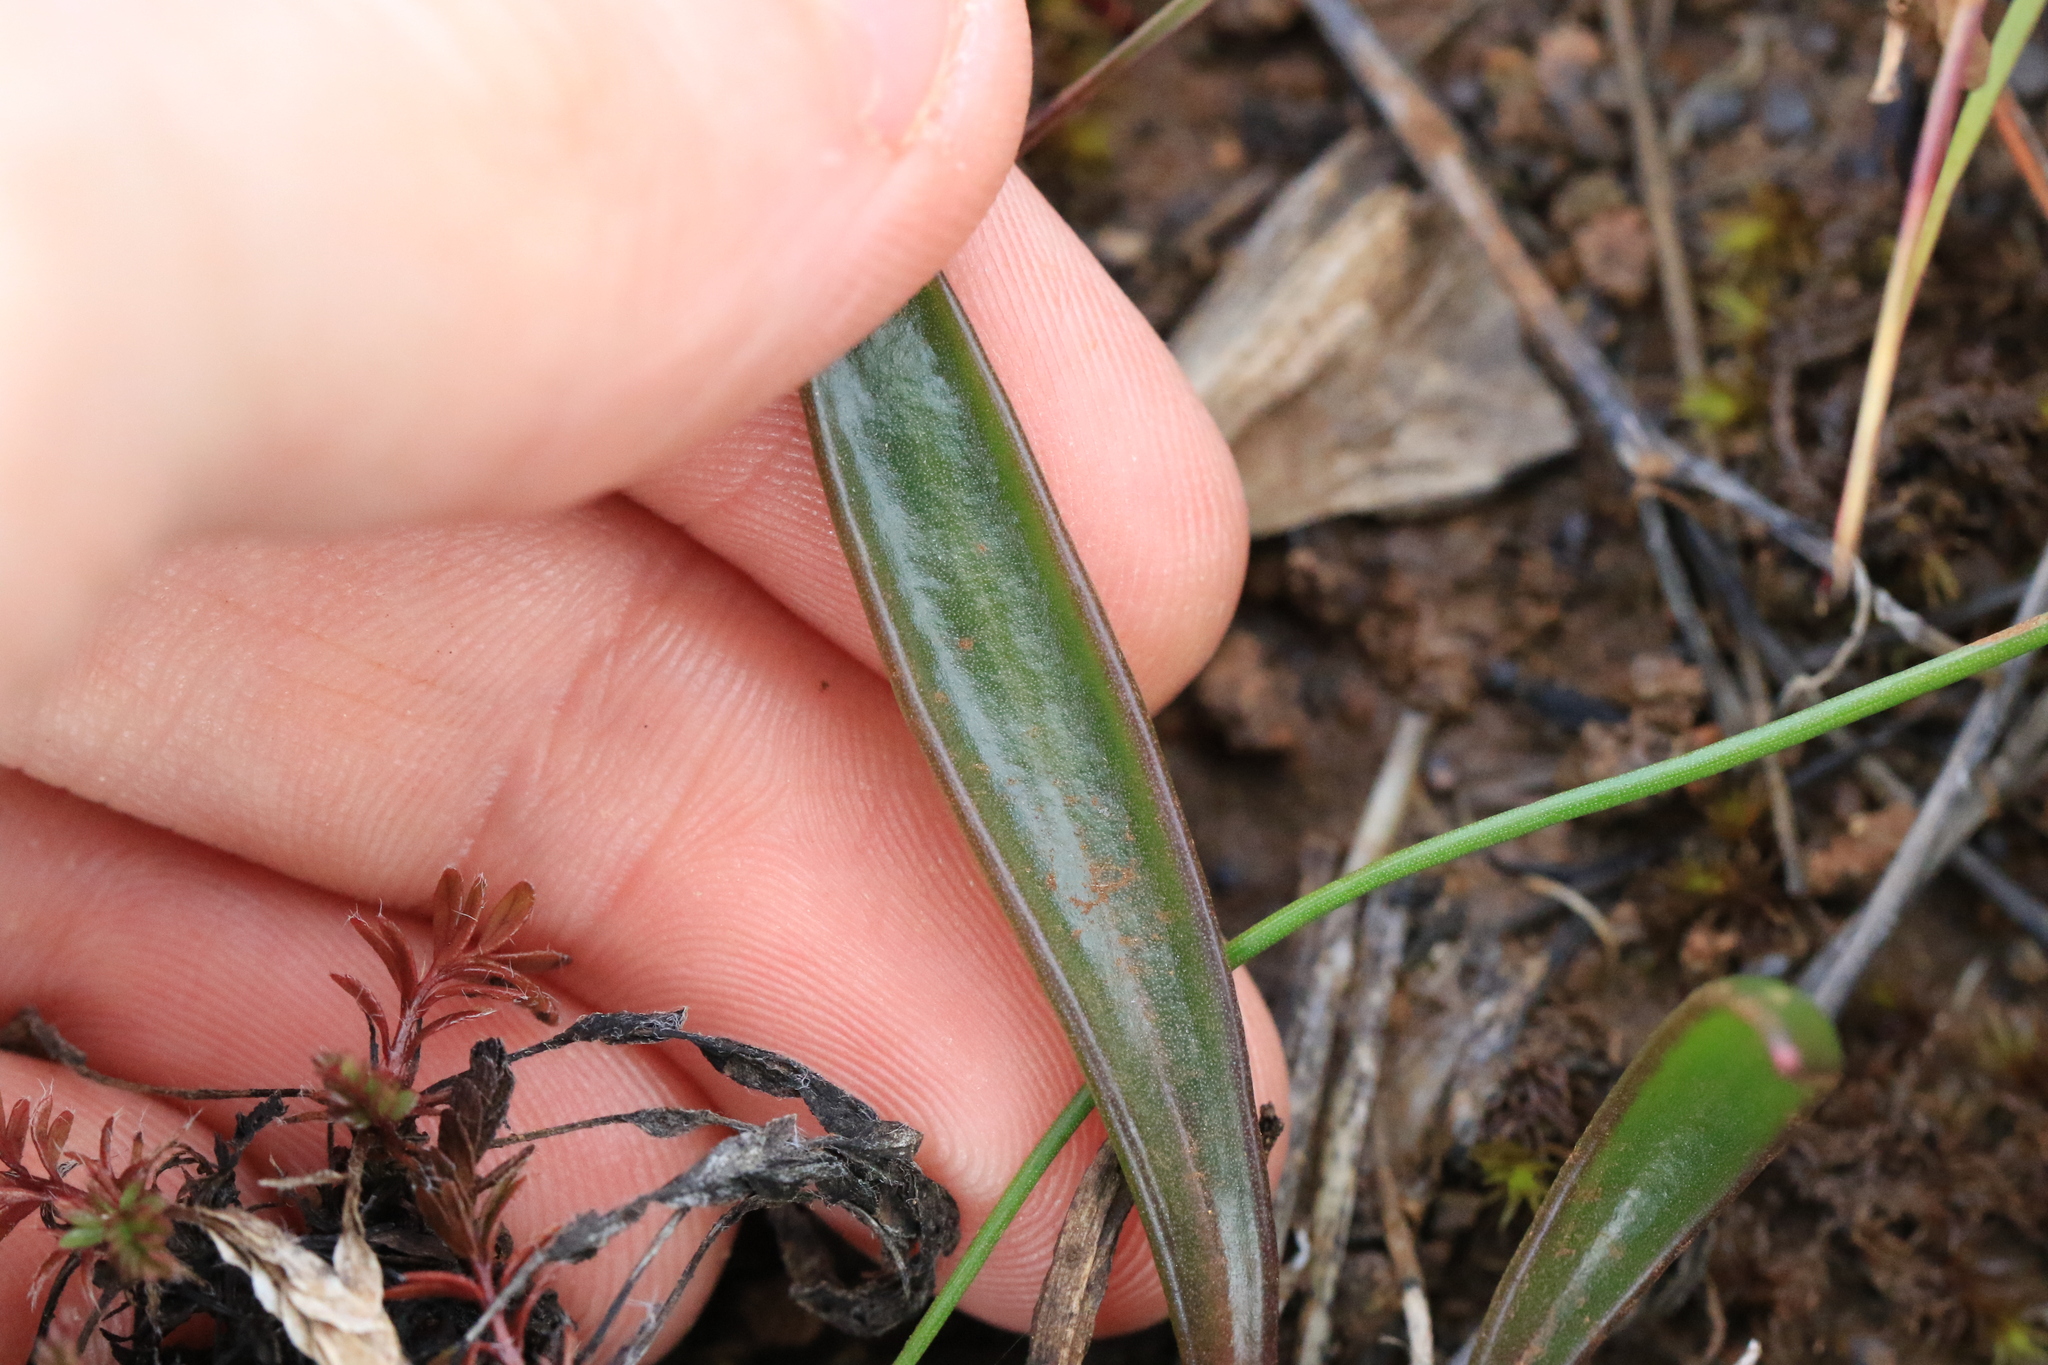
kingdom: Plantae
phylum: Tracheophyta
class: Magnoliopsida
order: Caryophyllales
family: Montiaceae
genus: Lewisia
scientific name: Lewisia oppositifolia
